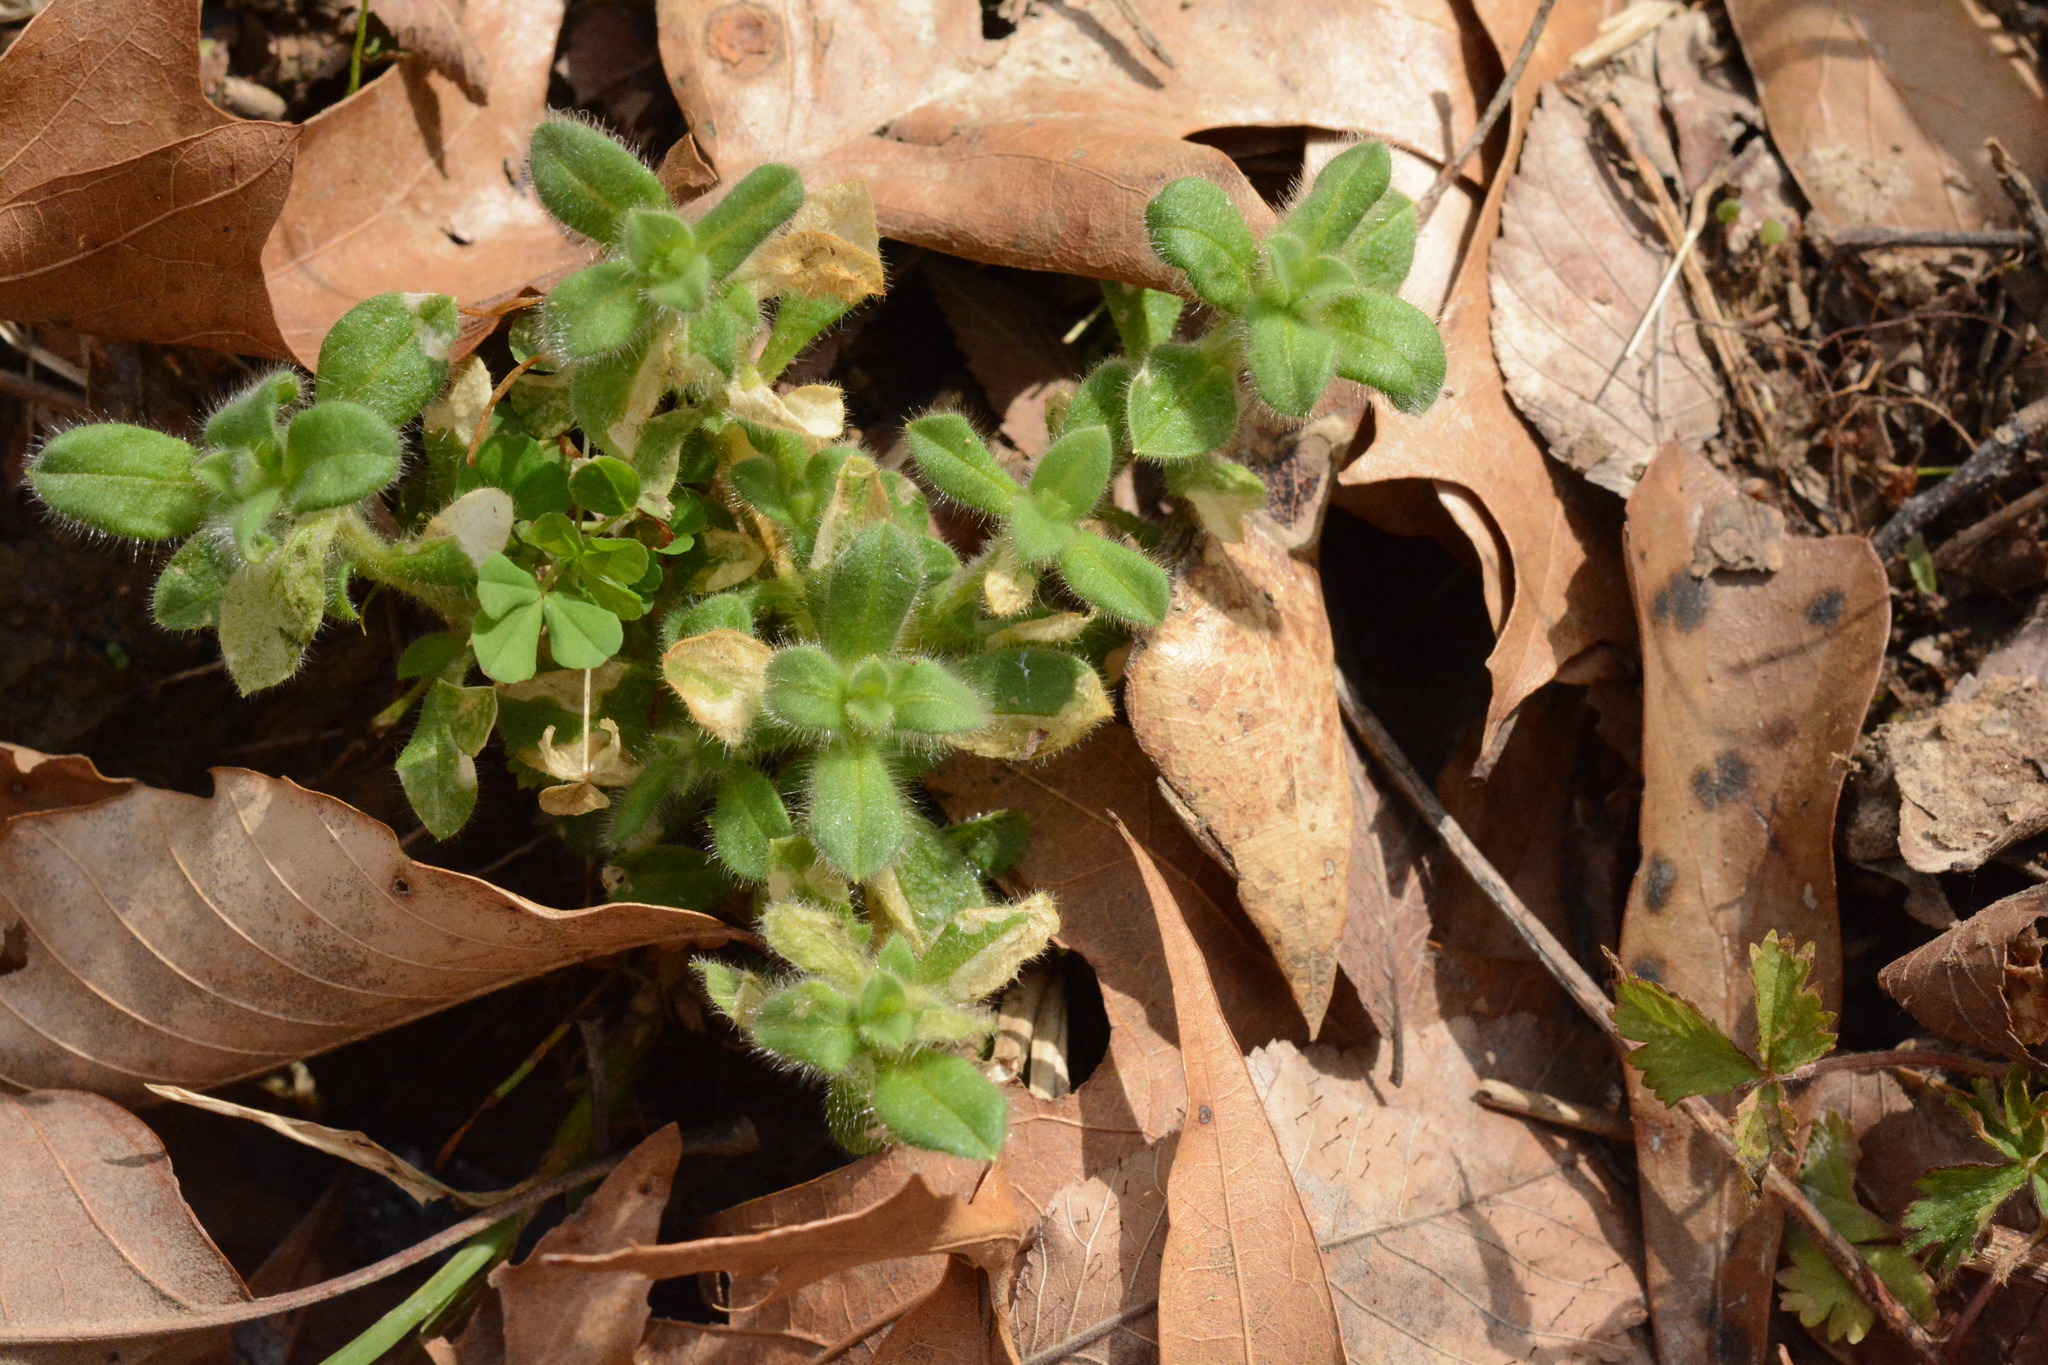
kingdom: Plantae
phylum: Tracheophyta
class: Magnoliopsida
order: Caryophyllales
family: Caryophyllaceae
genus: Cerastium
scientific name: Cerastium glomeratum
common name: Sticky chickweed
